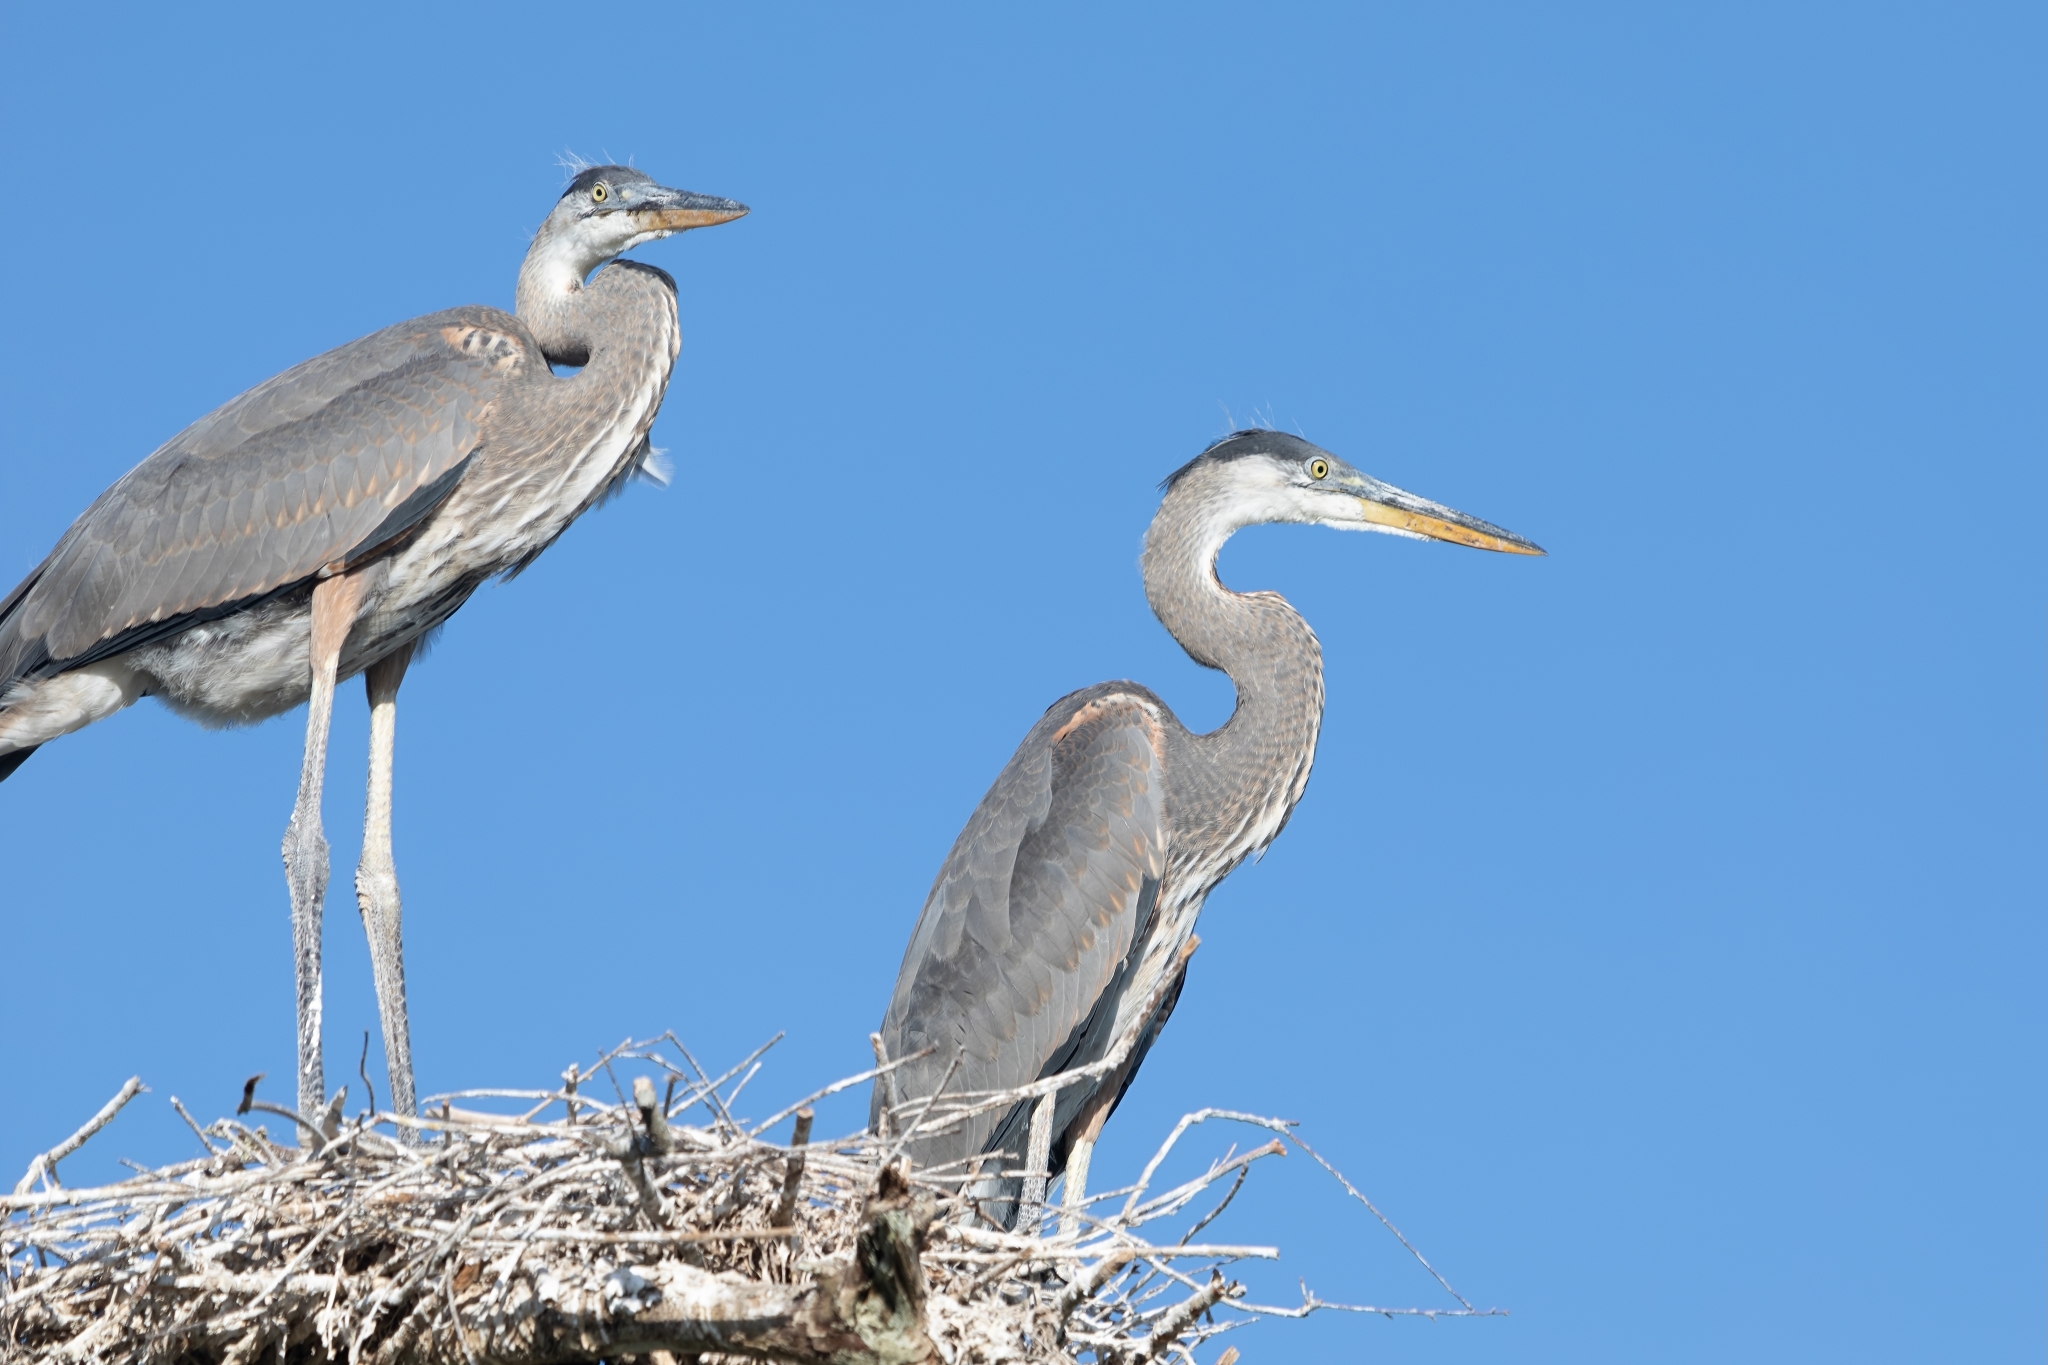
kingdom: Animalia
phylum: Chordata
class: Aves
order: Pelecaniformes
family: Ardeidae
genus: Ardea
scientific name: Ardea herodias
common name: Great blue heron
